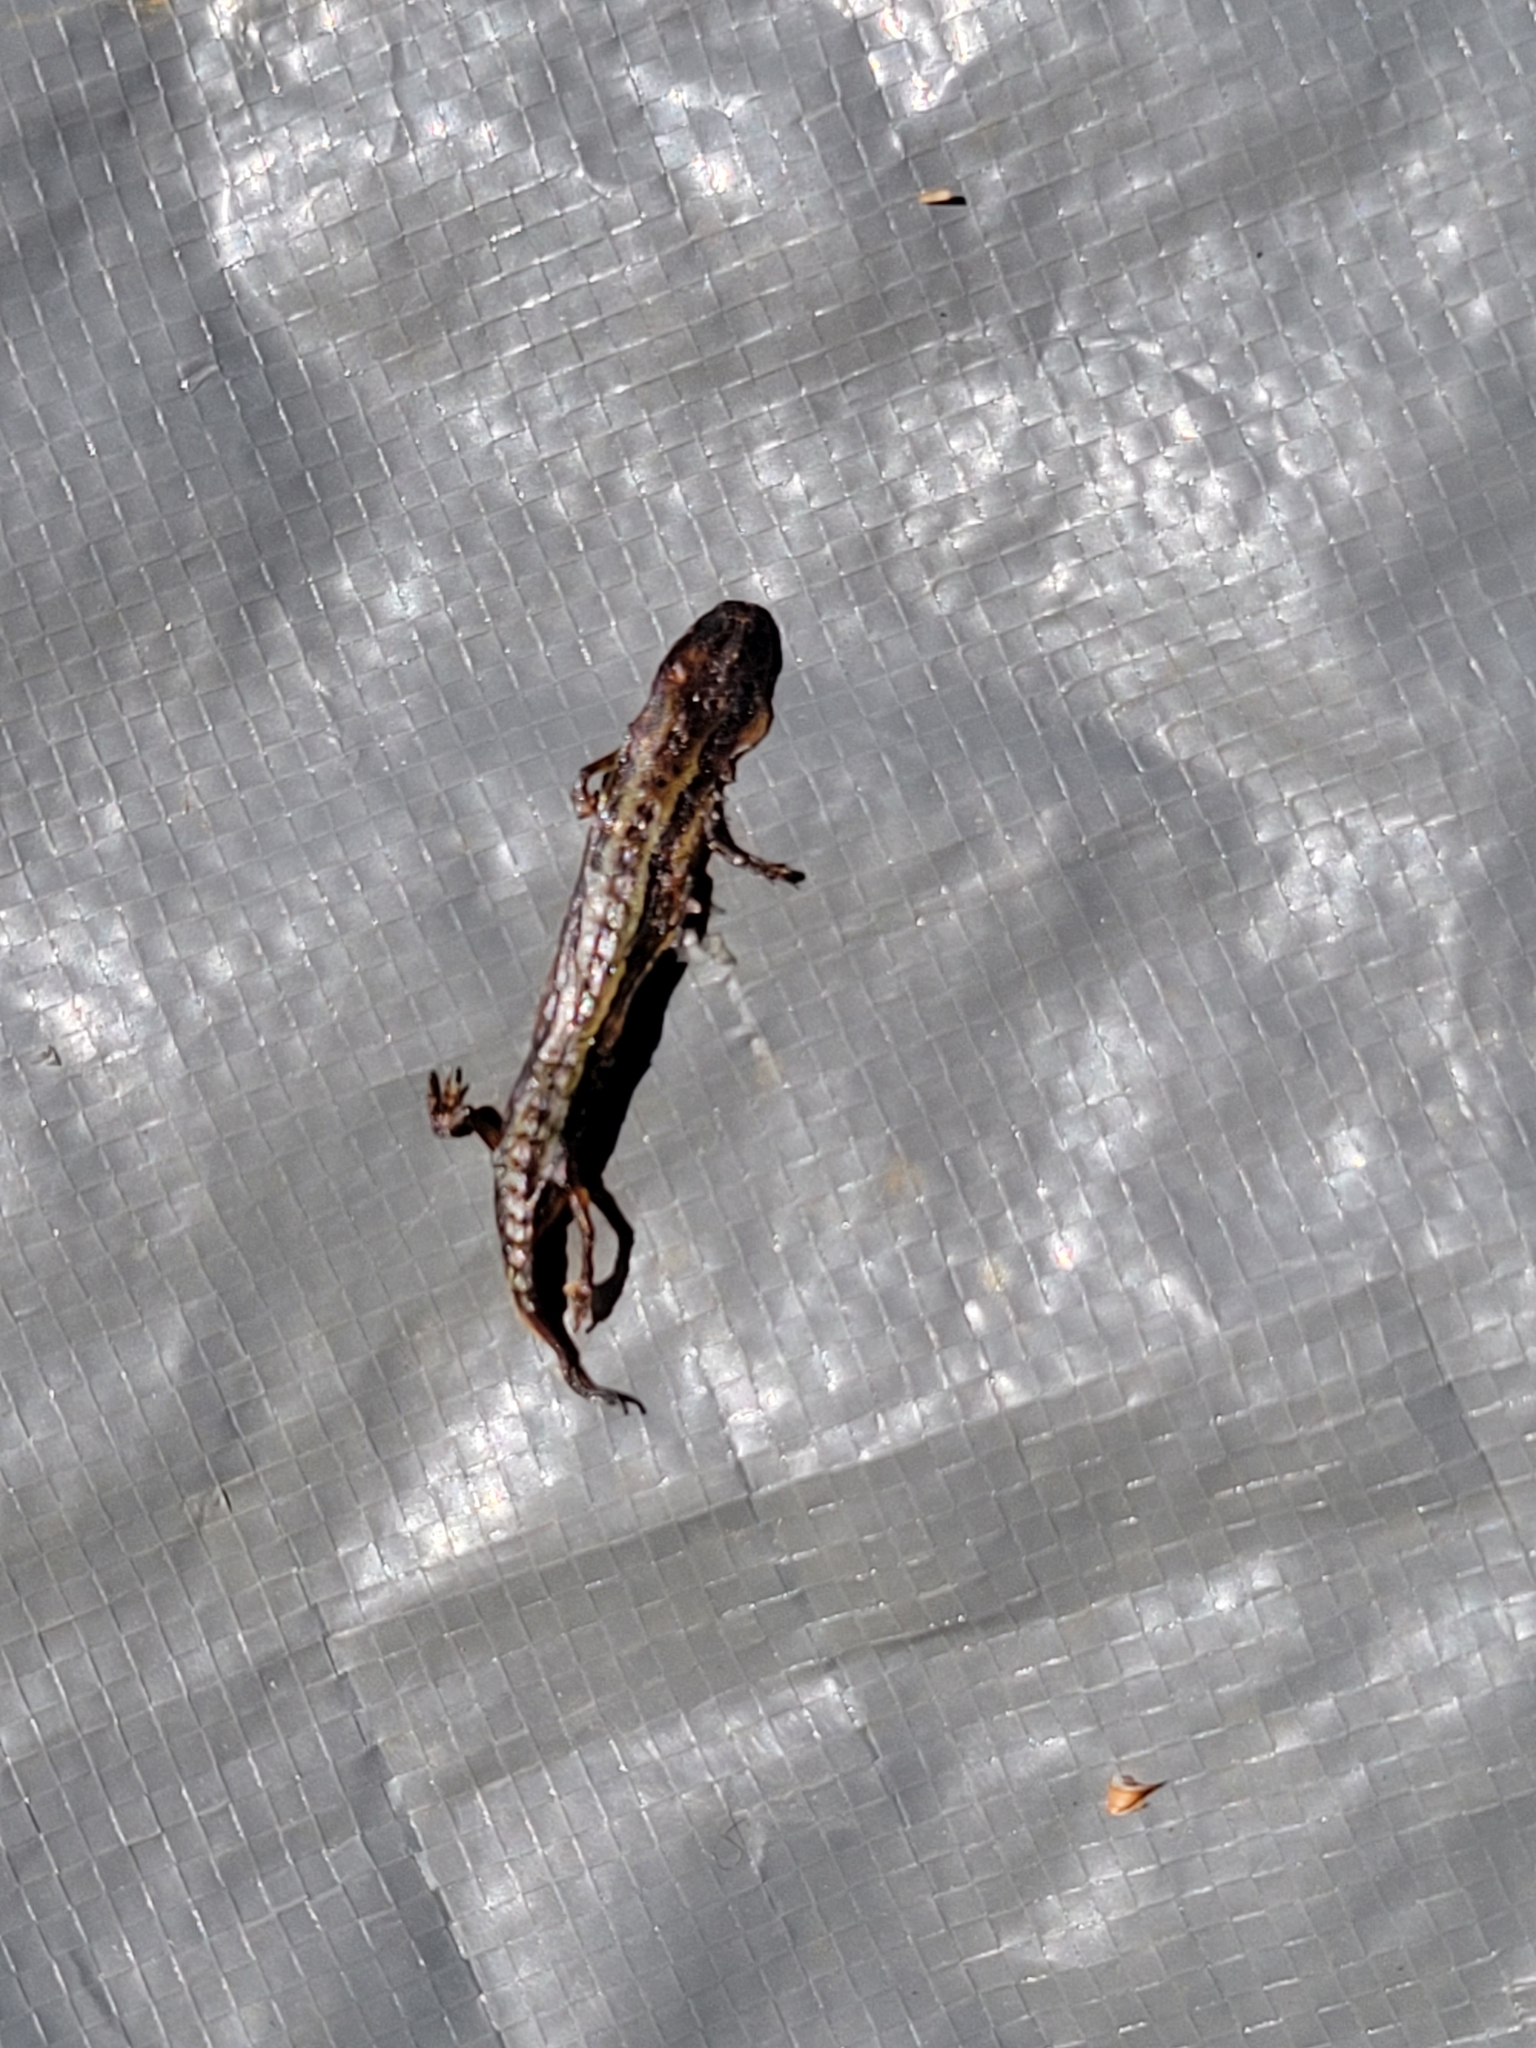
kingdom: Animalia
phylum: Chordata
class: Amphibia
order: Caudata
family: Plethodontidae
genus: Eurycea
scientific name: Eurycea bislineata
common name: Northern two-lined salamander
